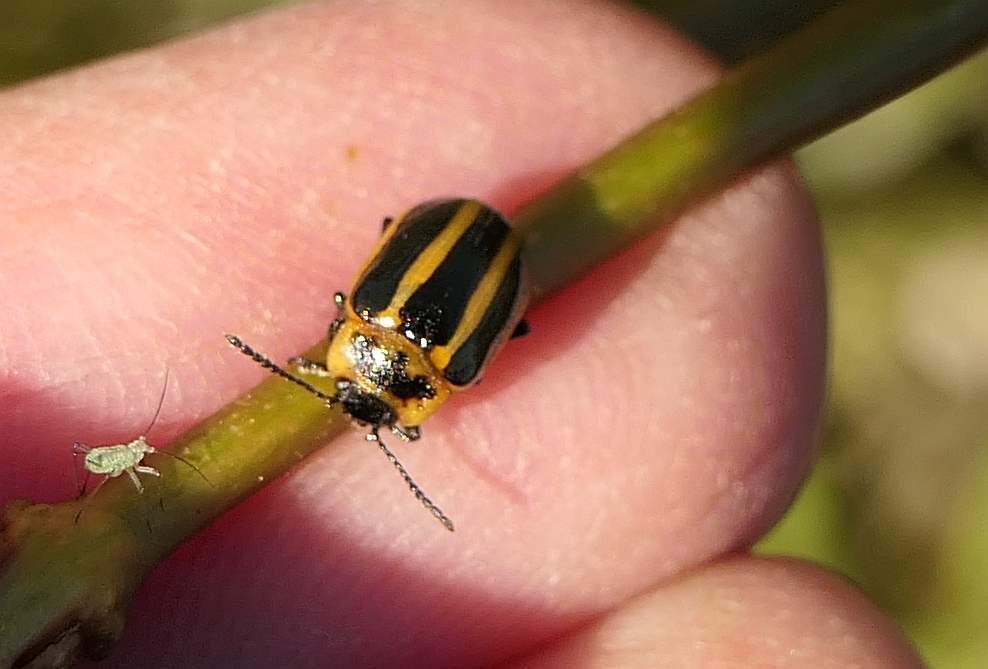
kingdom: Animalia
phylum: Arthropoda
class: Insecta
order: Coleoptera
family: Chrysomelidae
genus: Calligrapha
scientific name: Calligrapha californica
